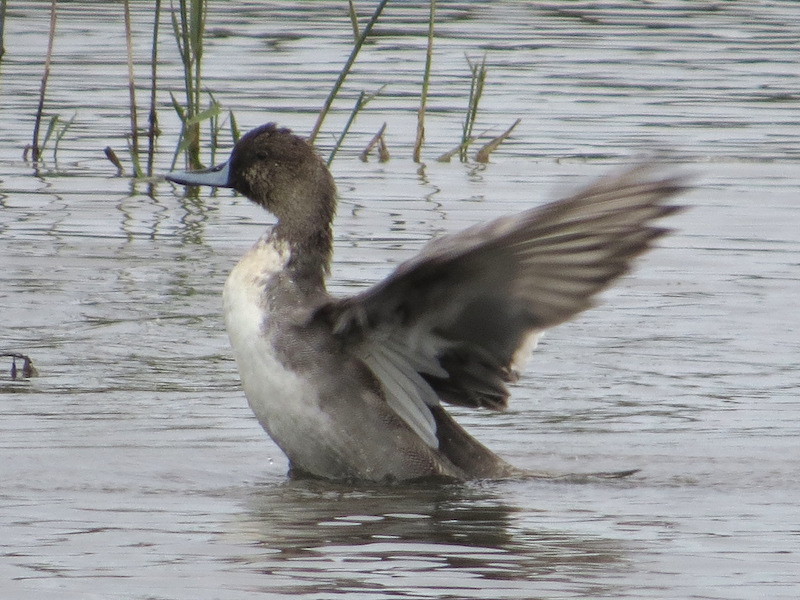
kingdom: Animalia
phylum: Chordata
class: Aves
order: Anseriformes
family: Anatidae
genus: Anas
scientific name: Anas acuta
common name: Northern pintail
